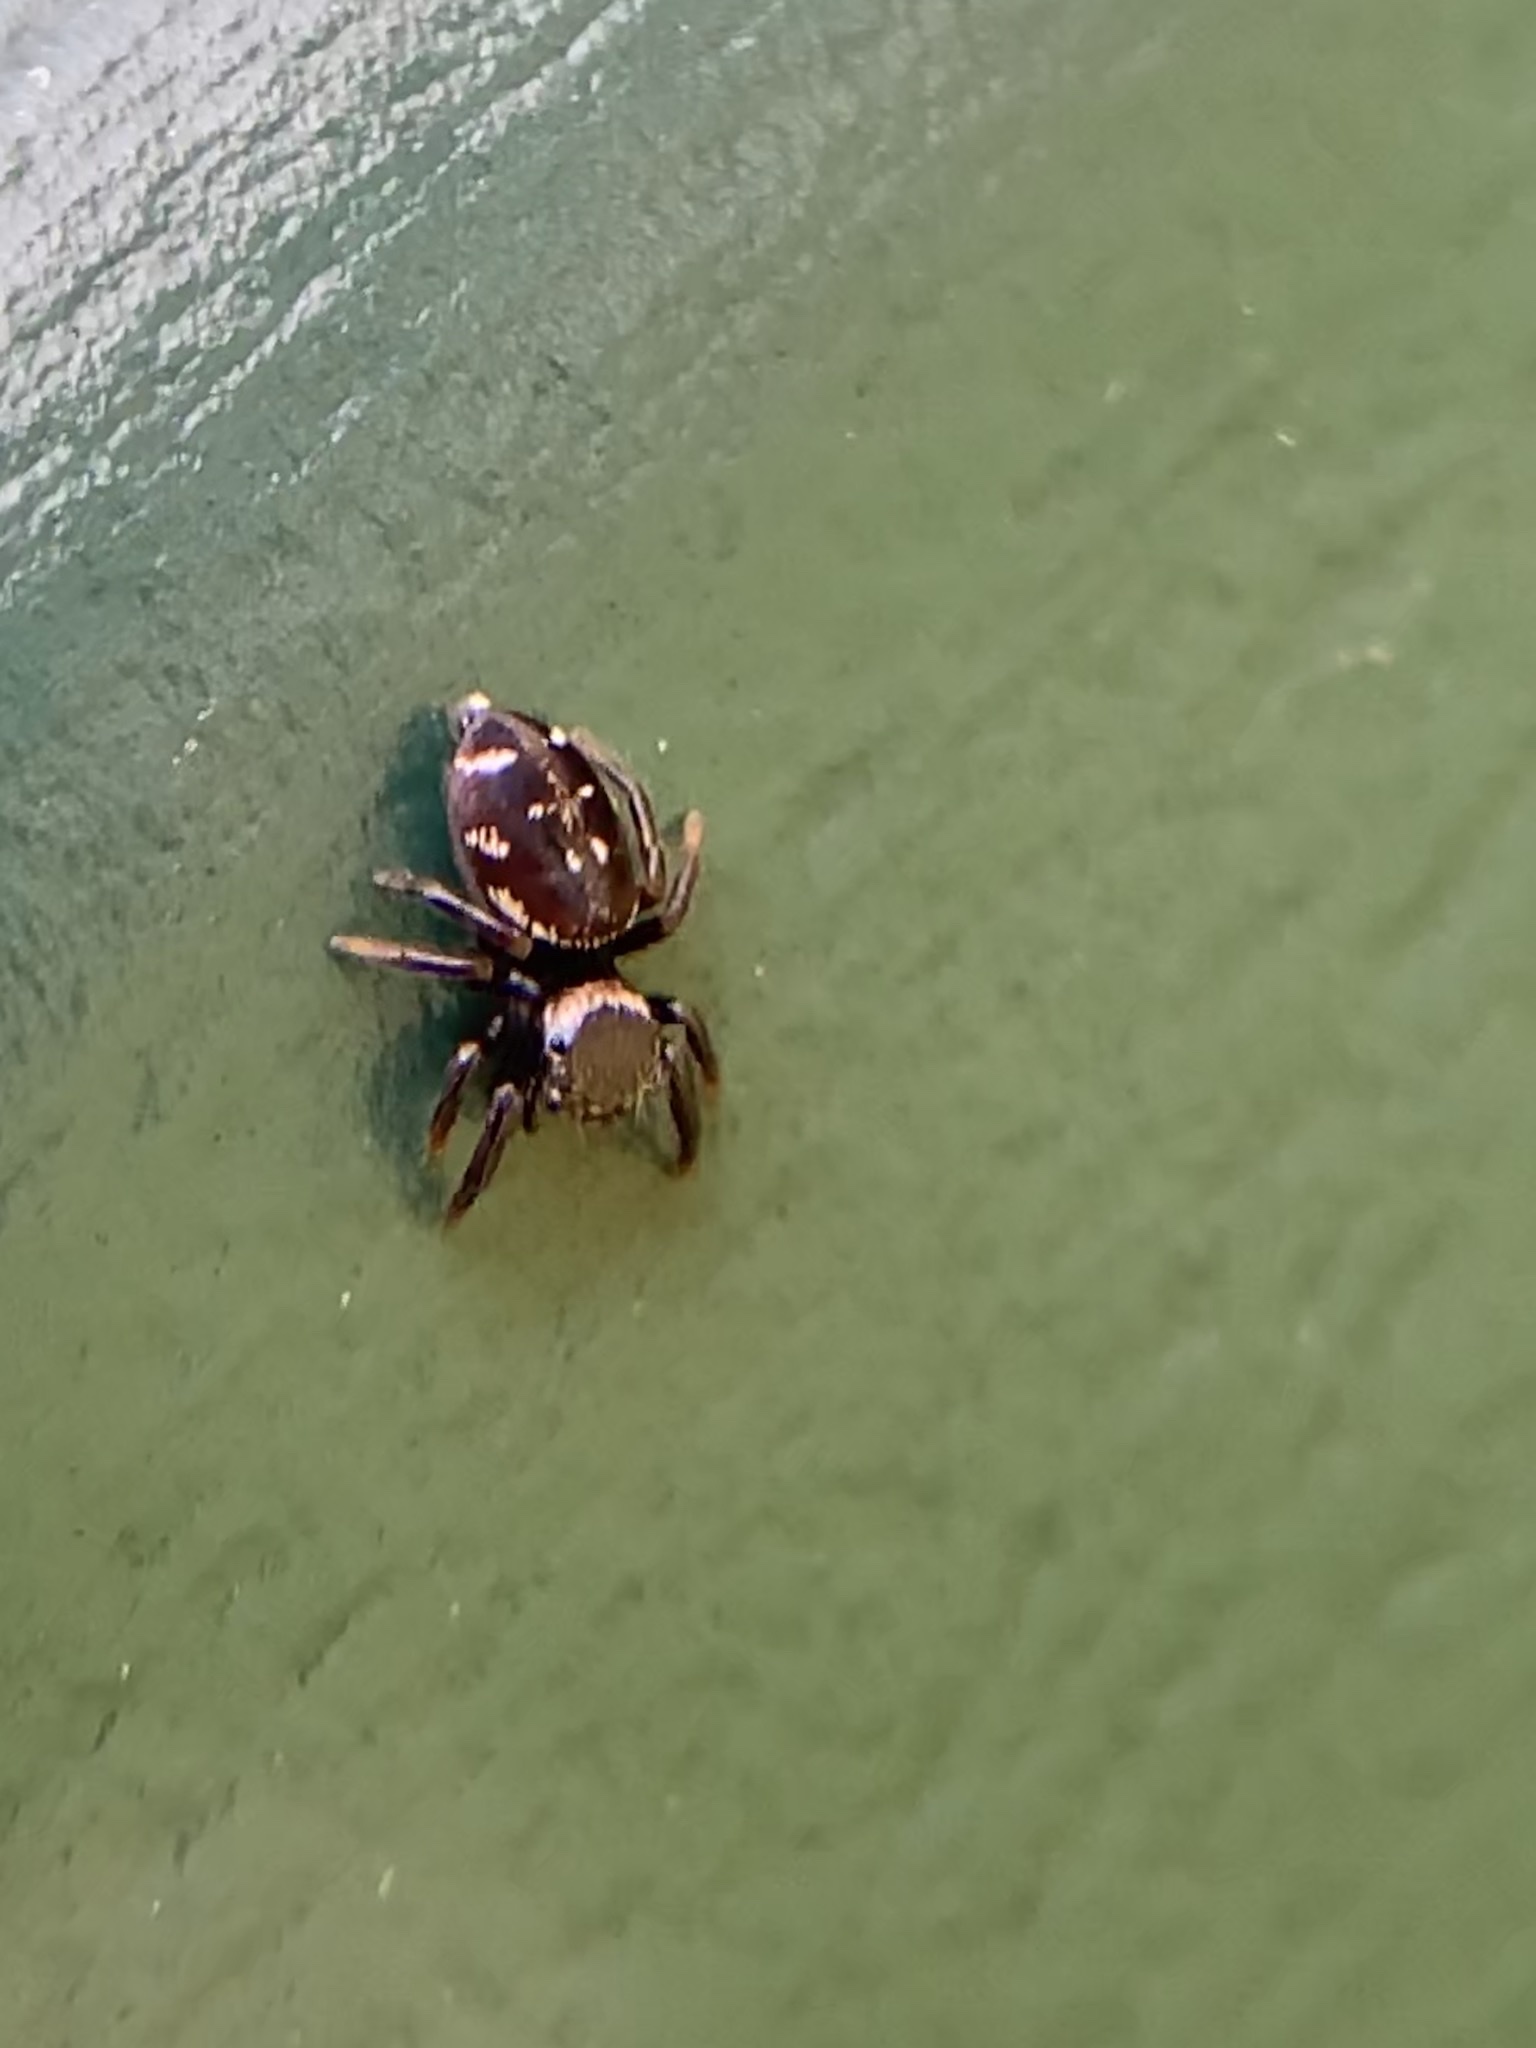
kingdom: Animalia
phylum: Arthropoda
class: Arachnida
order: Araneae
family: Salticidae
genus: Paraphidippus
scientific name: Paraphidippus aurantius
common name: Jumping spiders
